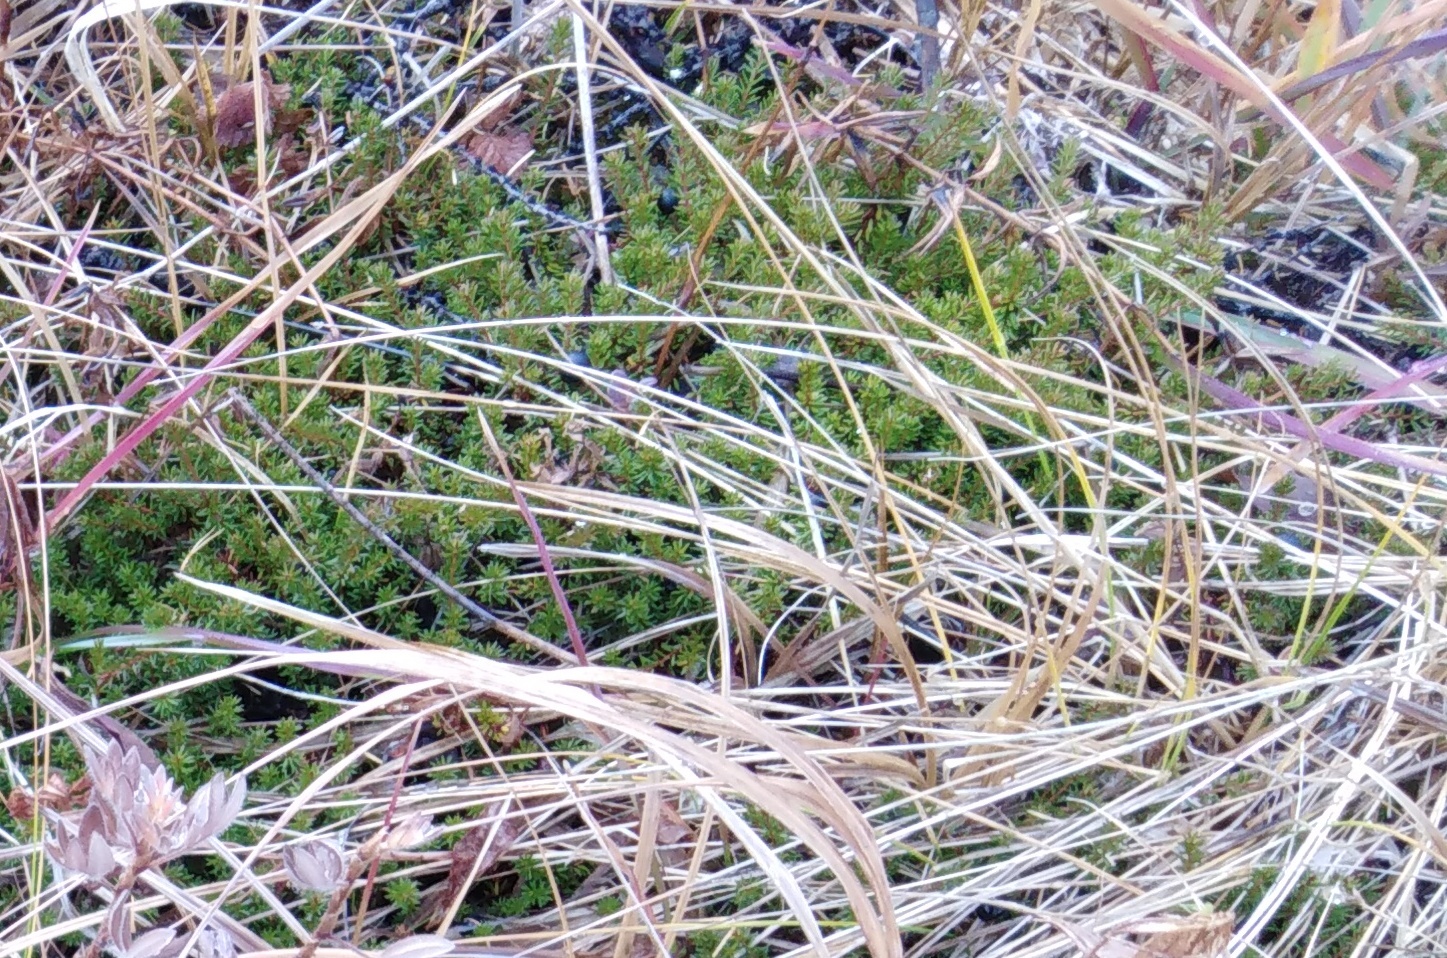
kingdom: Plantae
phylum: Tracheophyta
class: Magnoliopsida
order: Ericales
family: Ericaceae
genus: Empetrum
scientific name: Empetrum nigrum
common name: Black crowberry
